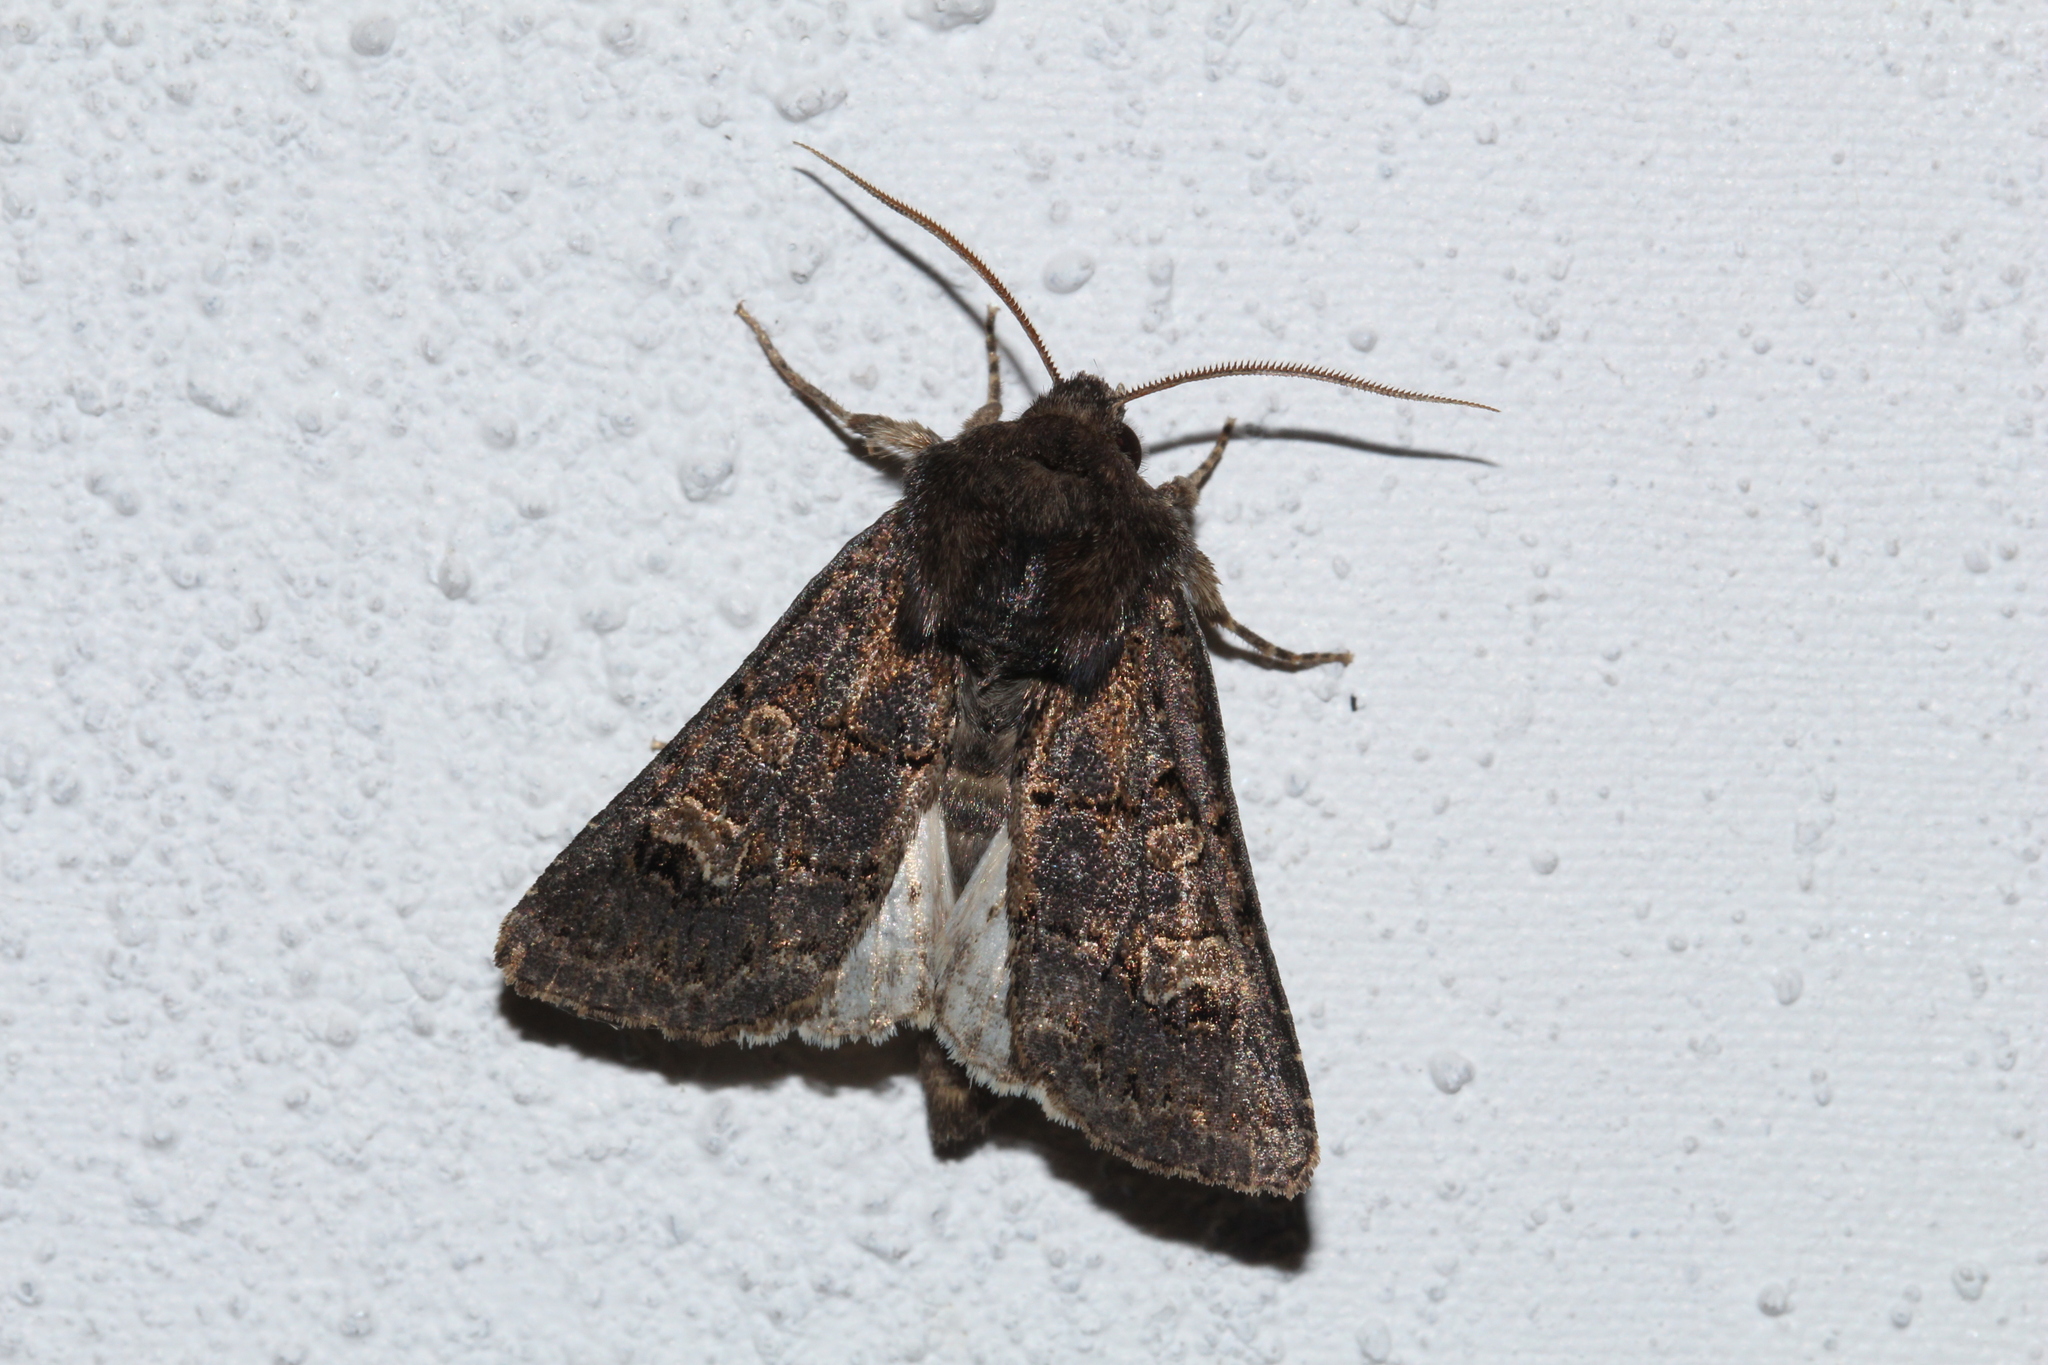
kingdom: Animalia
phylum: Arthropoda
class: Insecta
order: Lepidoptera
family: Noctuidae
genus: Tholera
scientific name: Tholera cespitis
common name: Hedge rustic
